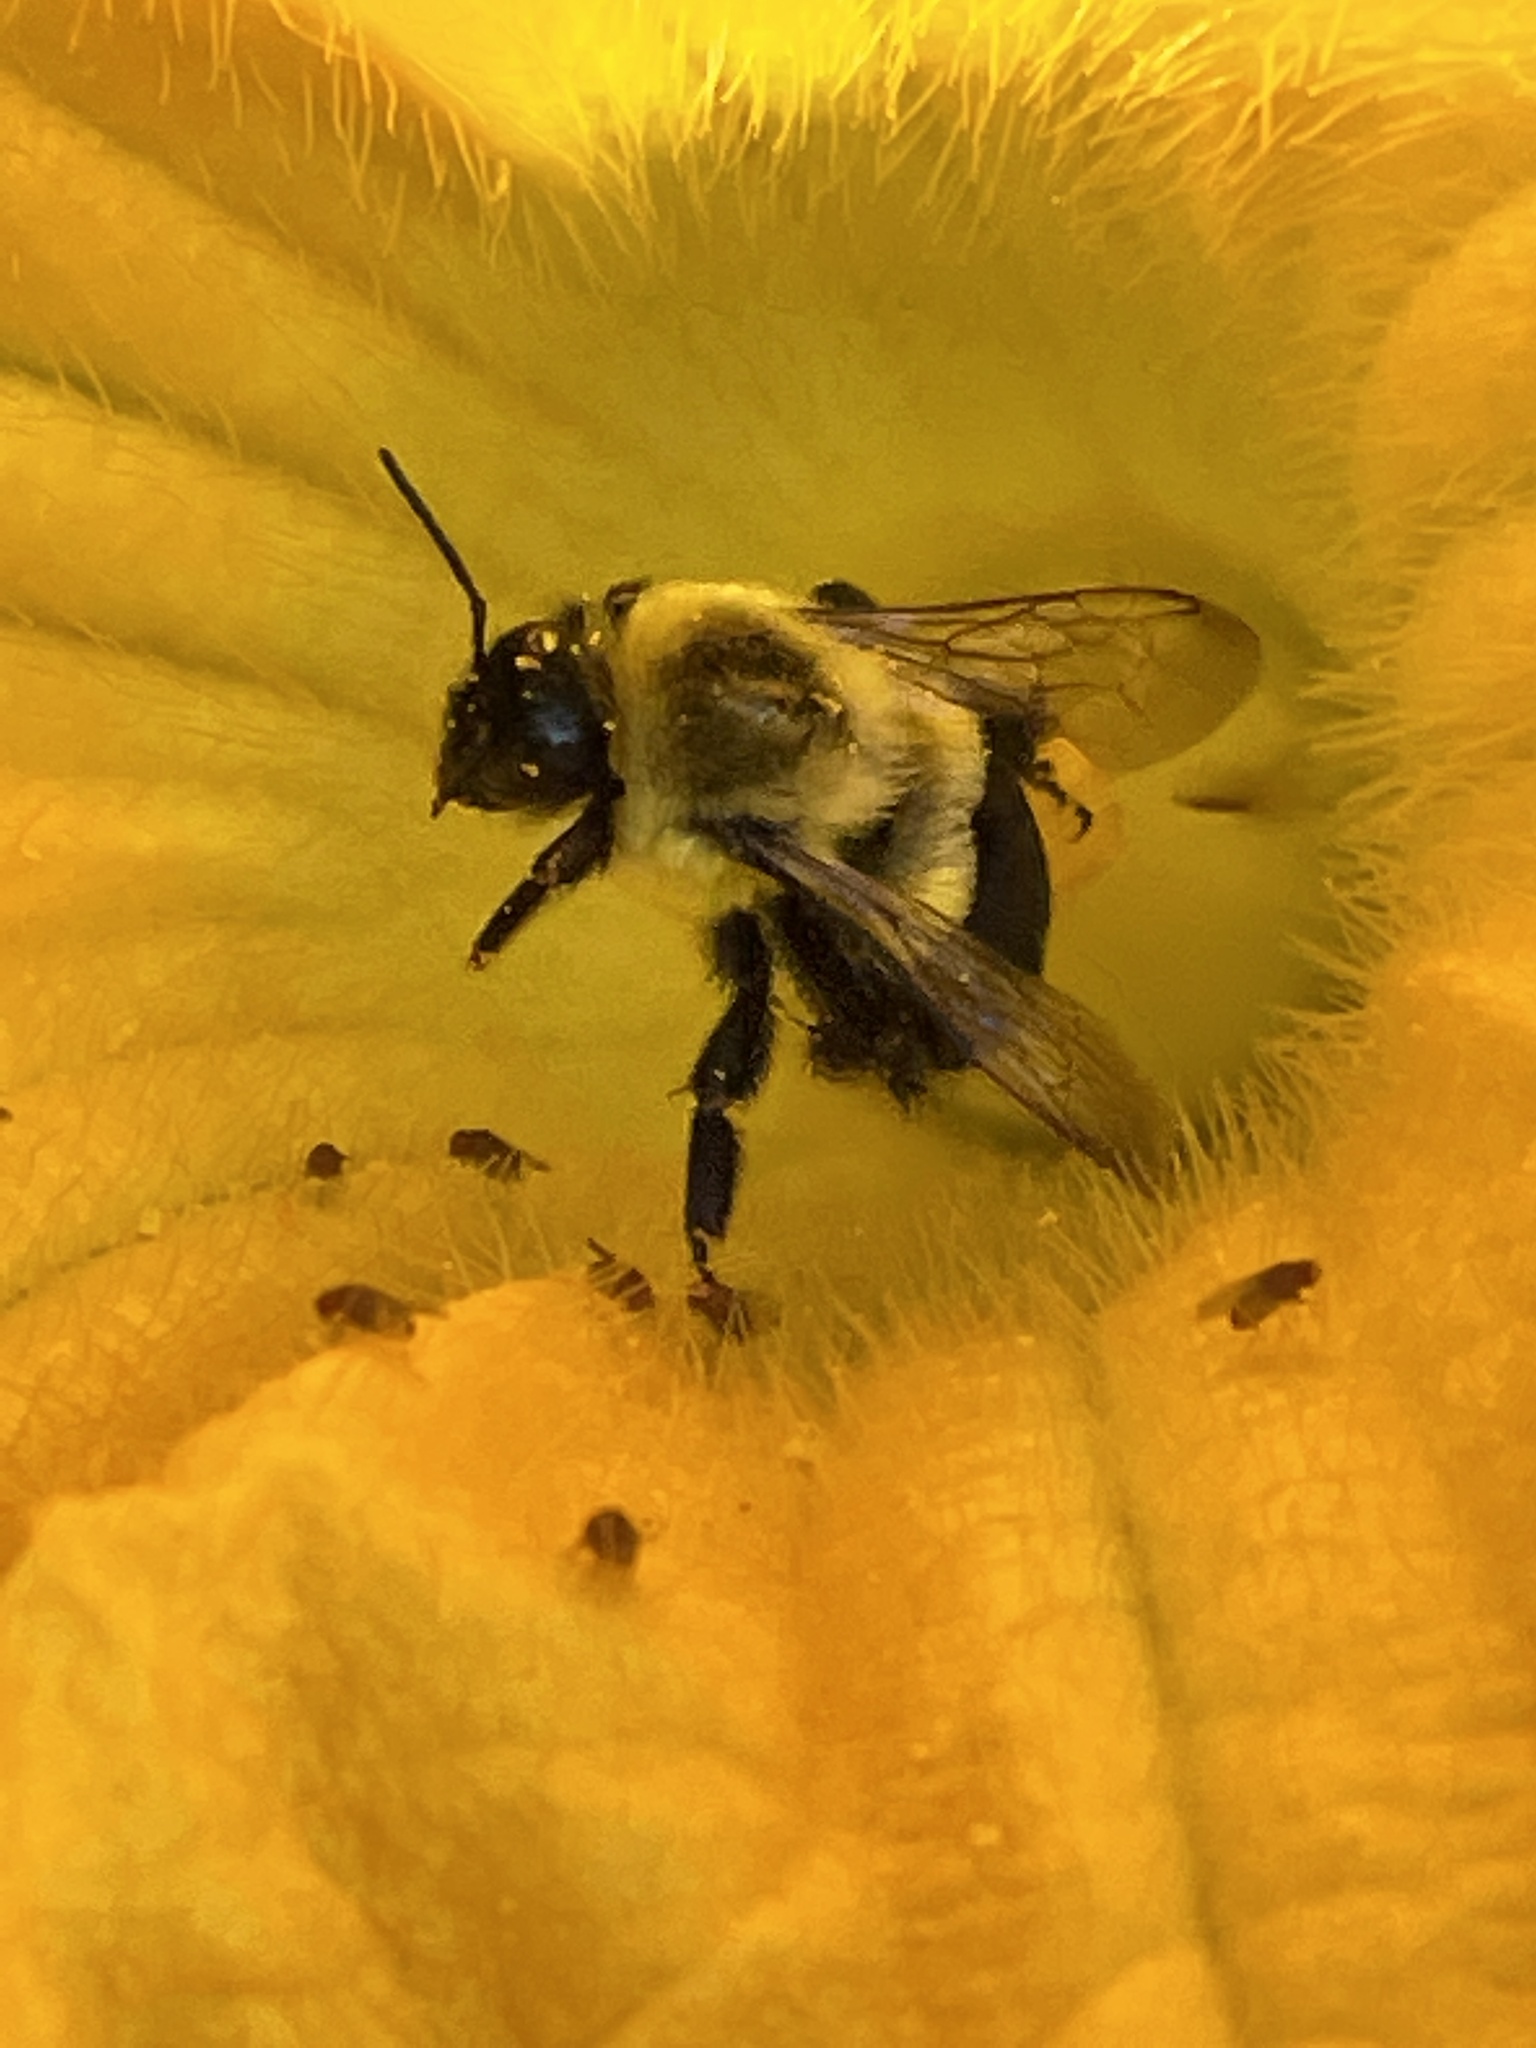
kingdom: Animalia
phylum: Arthropoda
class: Insecta
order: Hymenoptera
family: Apidae
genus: Bombus
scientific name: Bombus impatiens
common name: Common eastern bumble bee
